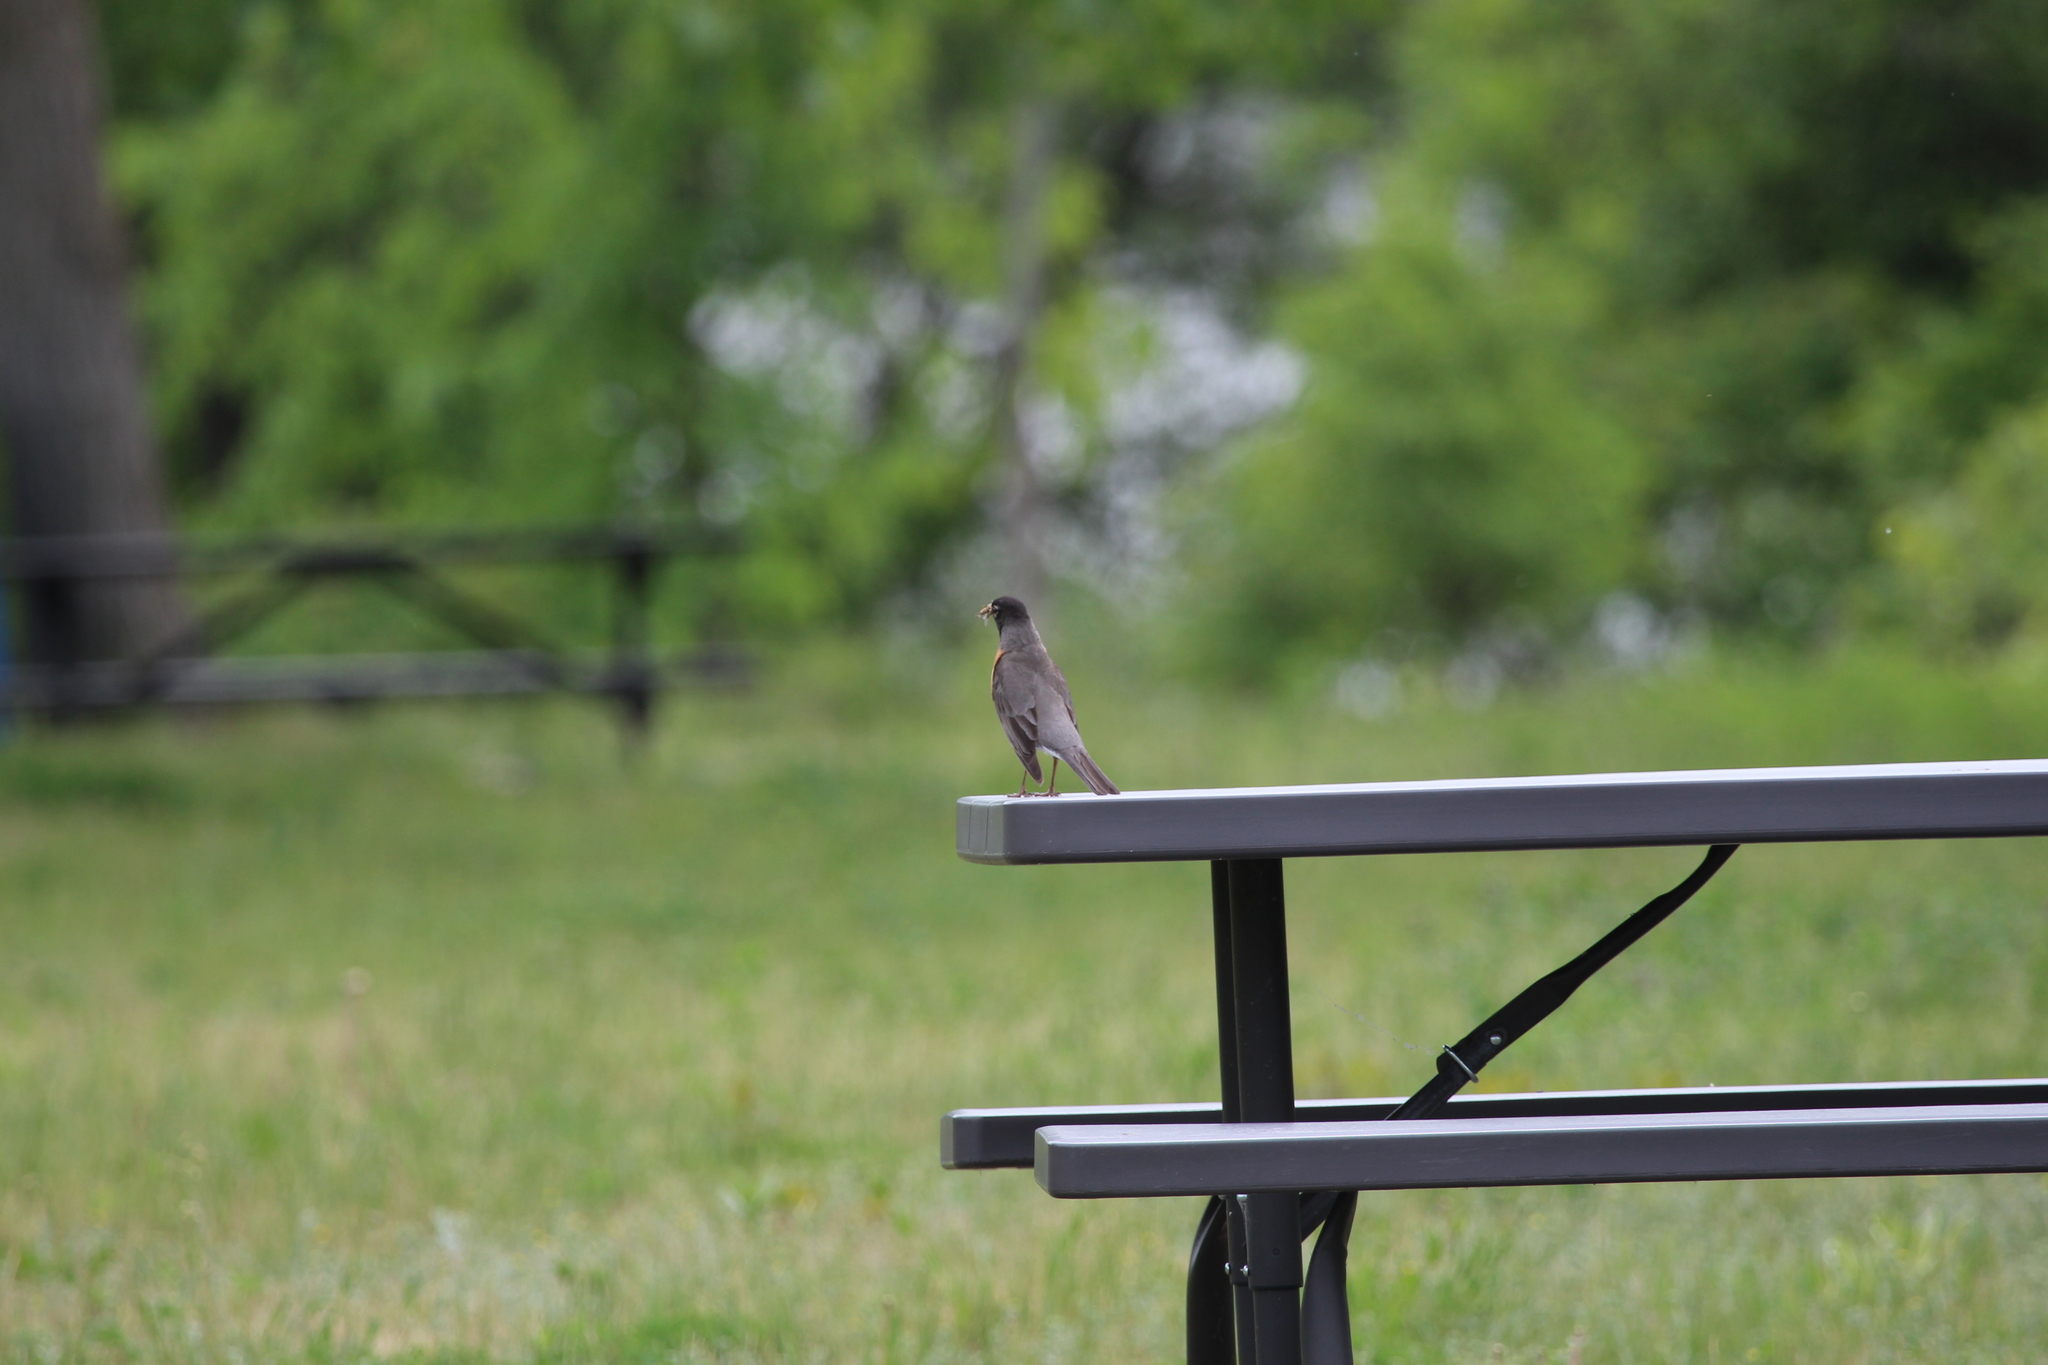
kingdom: Animalia
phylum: Chordata
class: Aves
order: Passeriformes
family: Turdidae
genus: Turdus
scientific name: Turdus migratorius
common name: American robin
